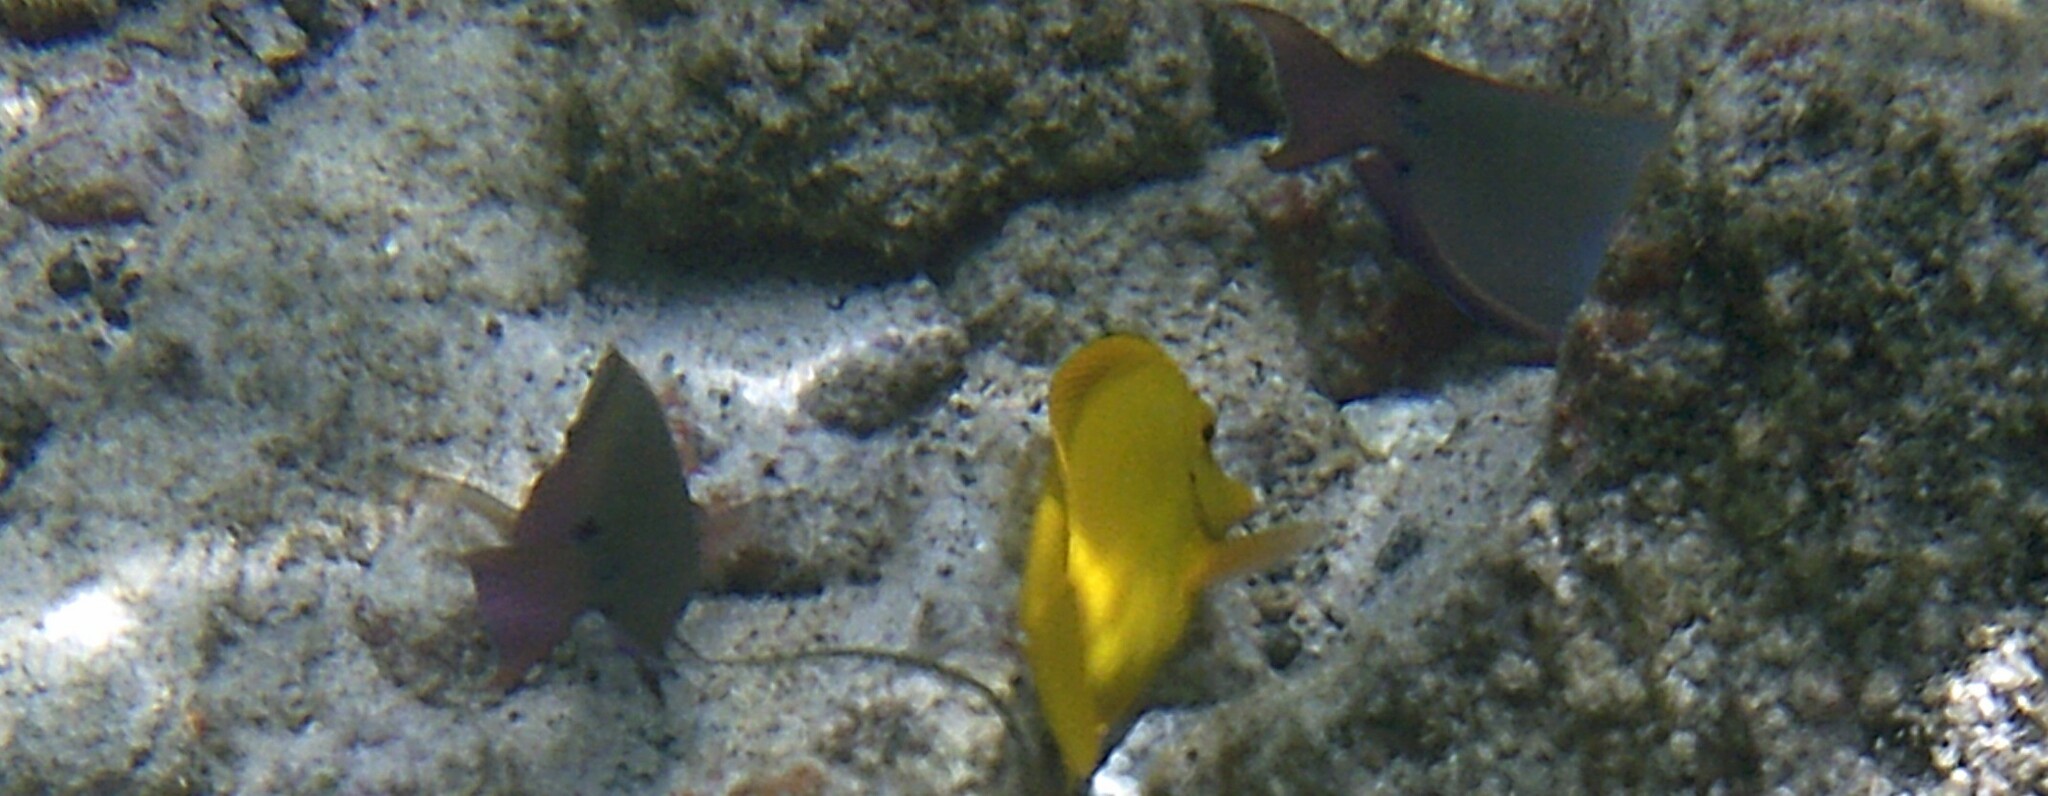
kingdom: Animalia
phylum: Chordata
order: Perciformes
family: Acanthuridae
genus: Acanthurus
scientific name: Acanthurus nigrofuscus
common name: Blackspot surgeonfish
